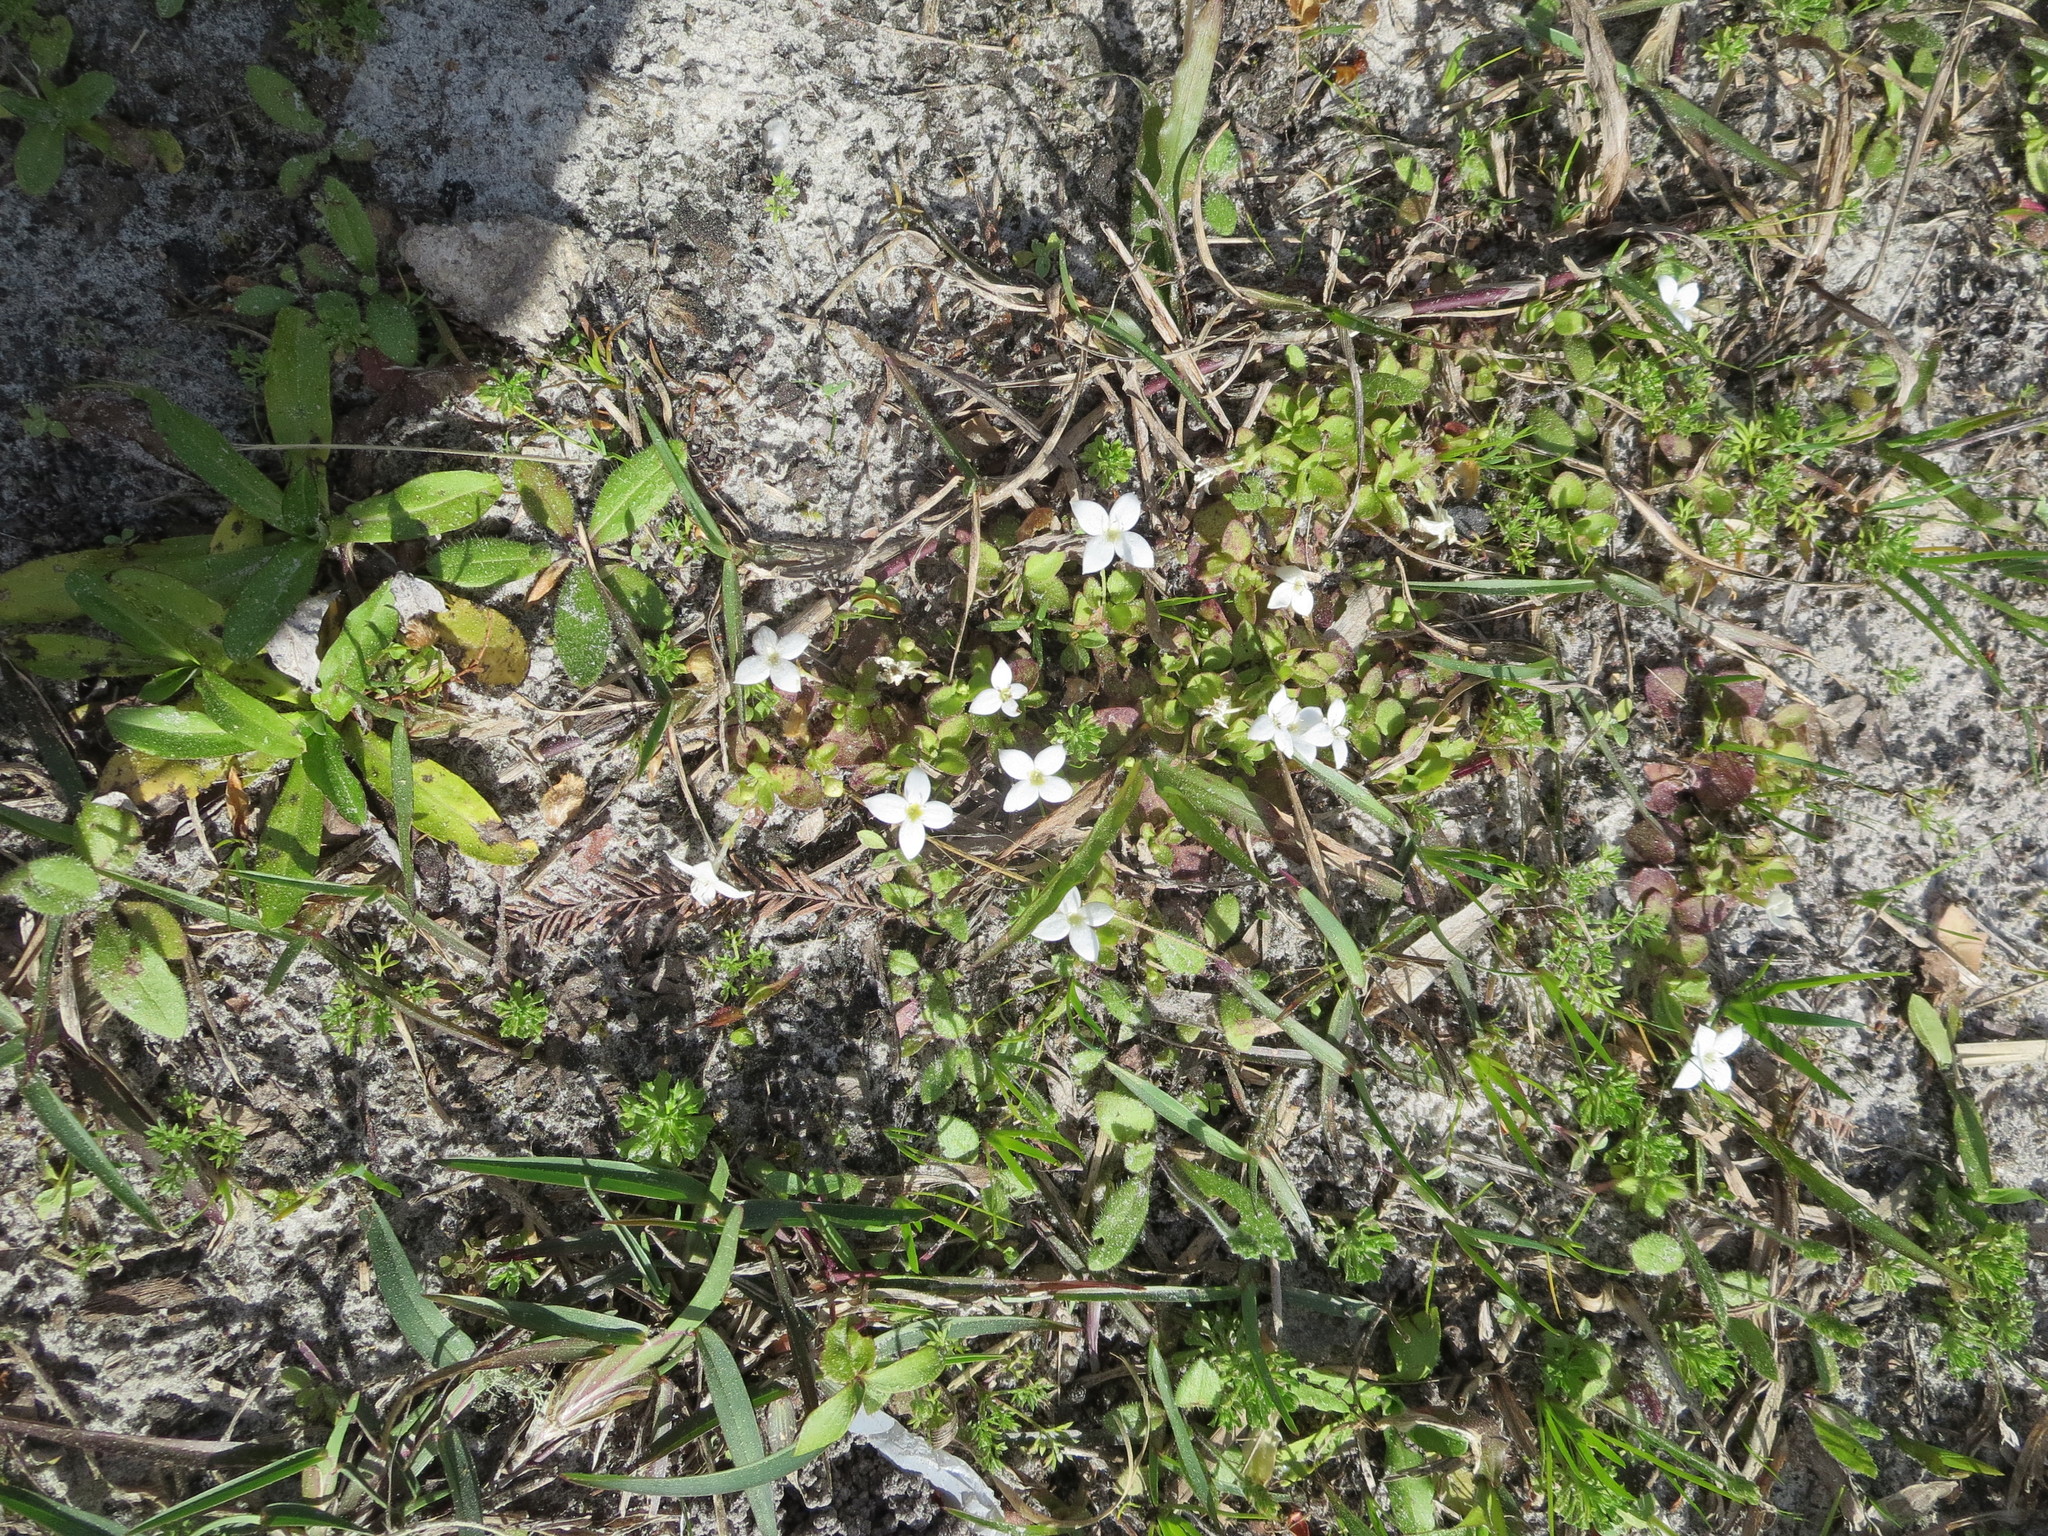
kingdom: Plantae
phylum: Tracheophyta
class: Magnoliopsida
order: Gentianales
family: Rubiaceae
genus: Houstonia
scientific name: Houstonia procumbens
